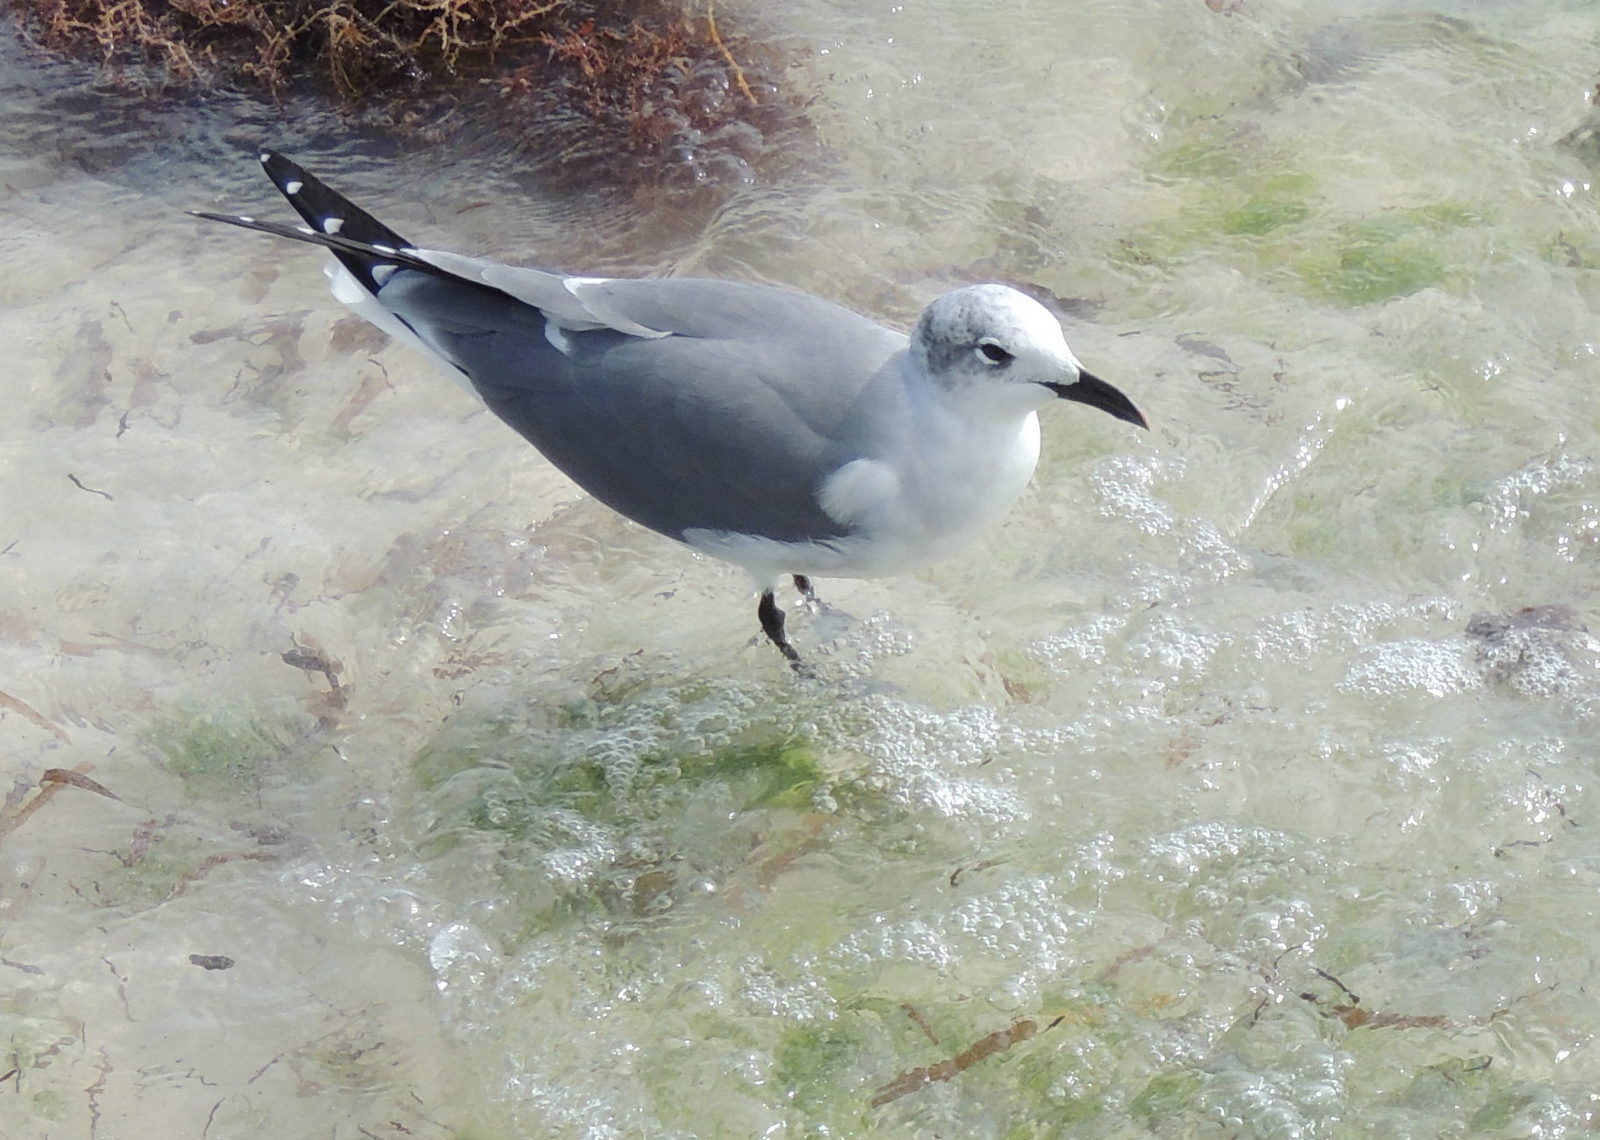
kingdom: Animalia
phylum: Chordata
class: Aves
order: Charadriiformes
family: Laridae
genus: Leucophaeus
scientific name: Leucophaeus atricilla
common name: Laughing gull
